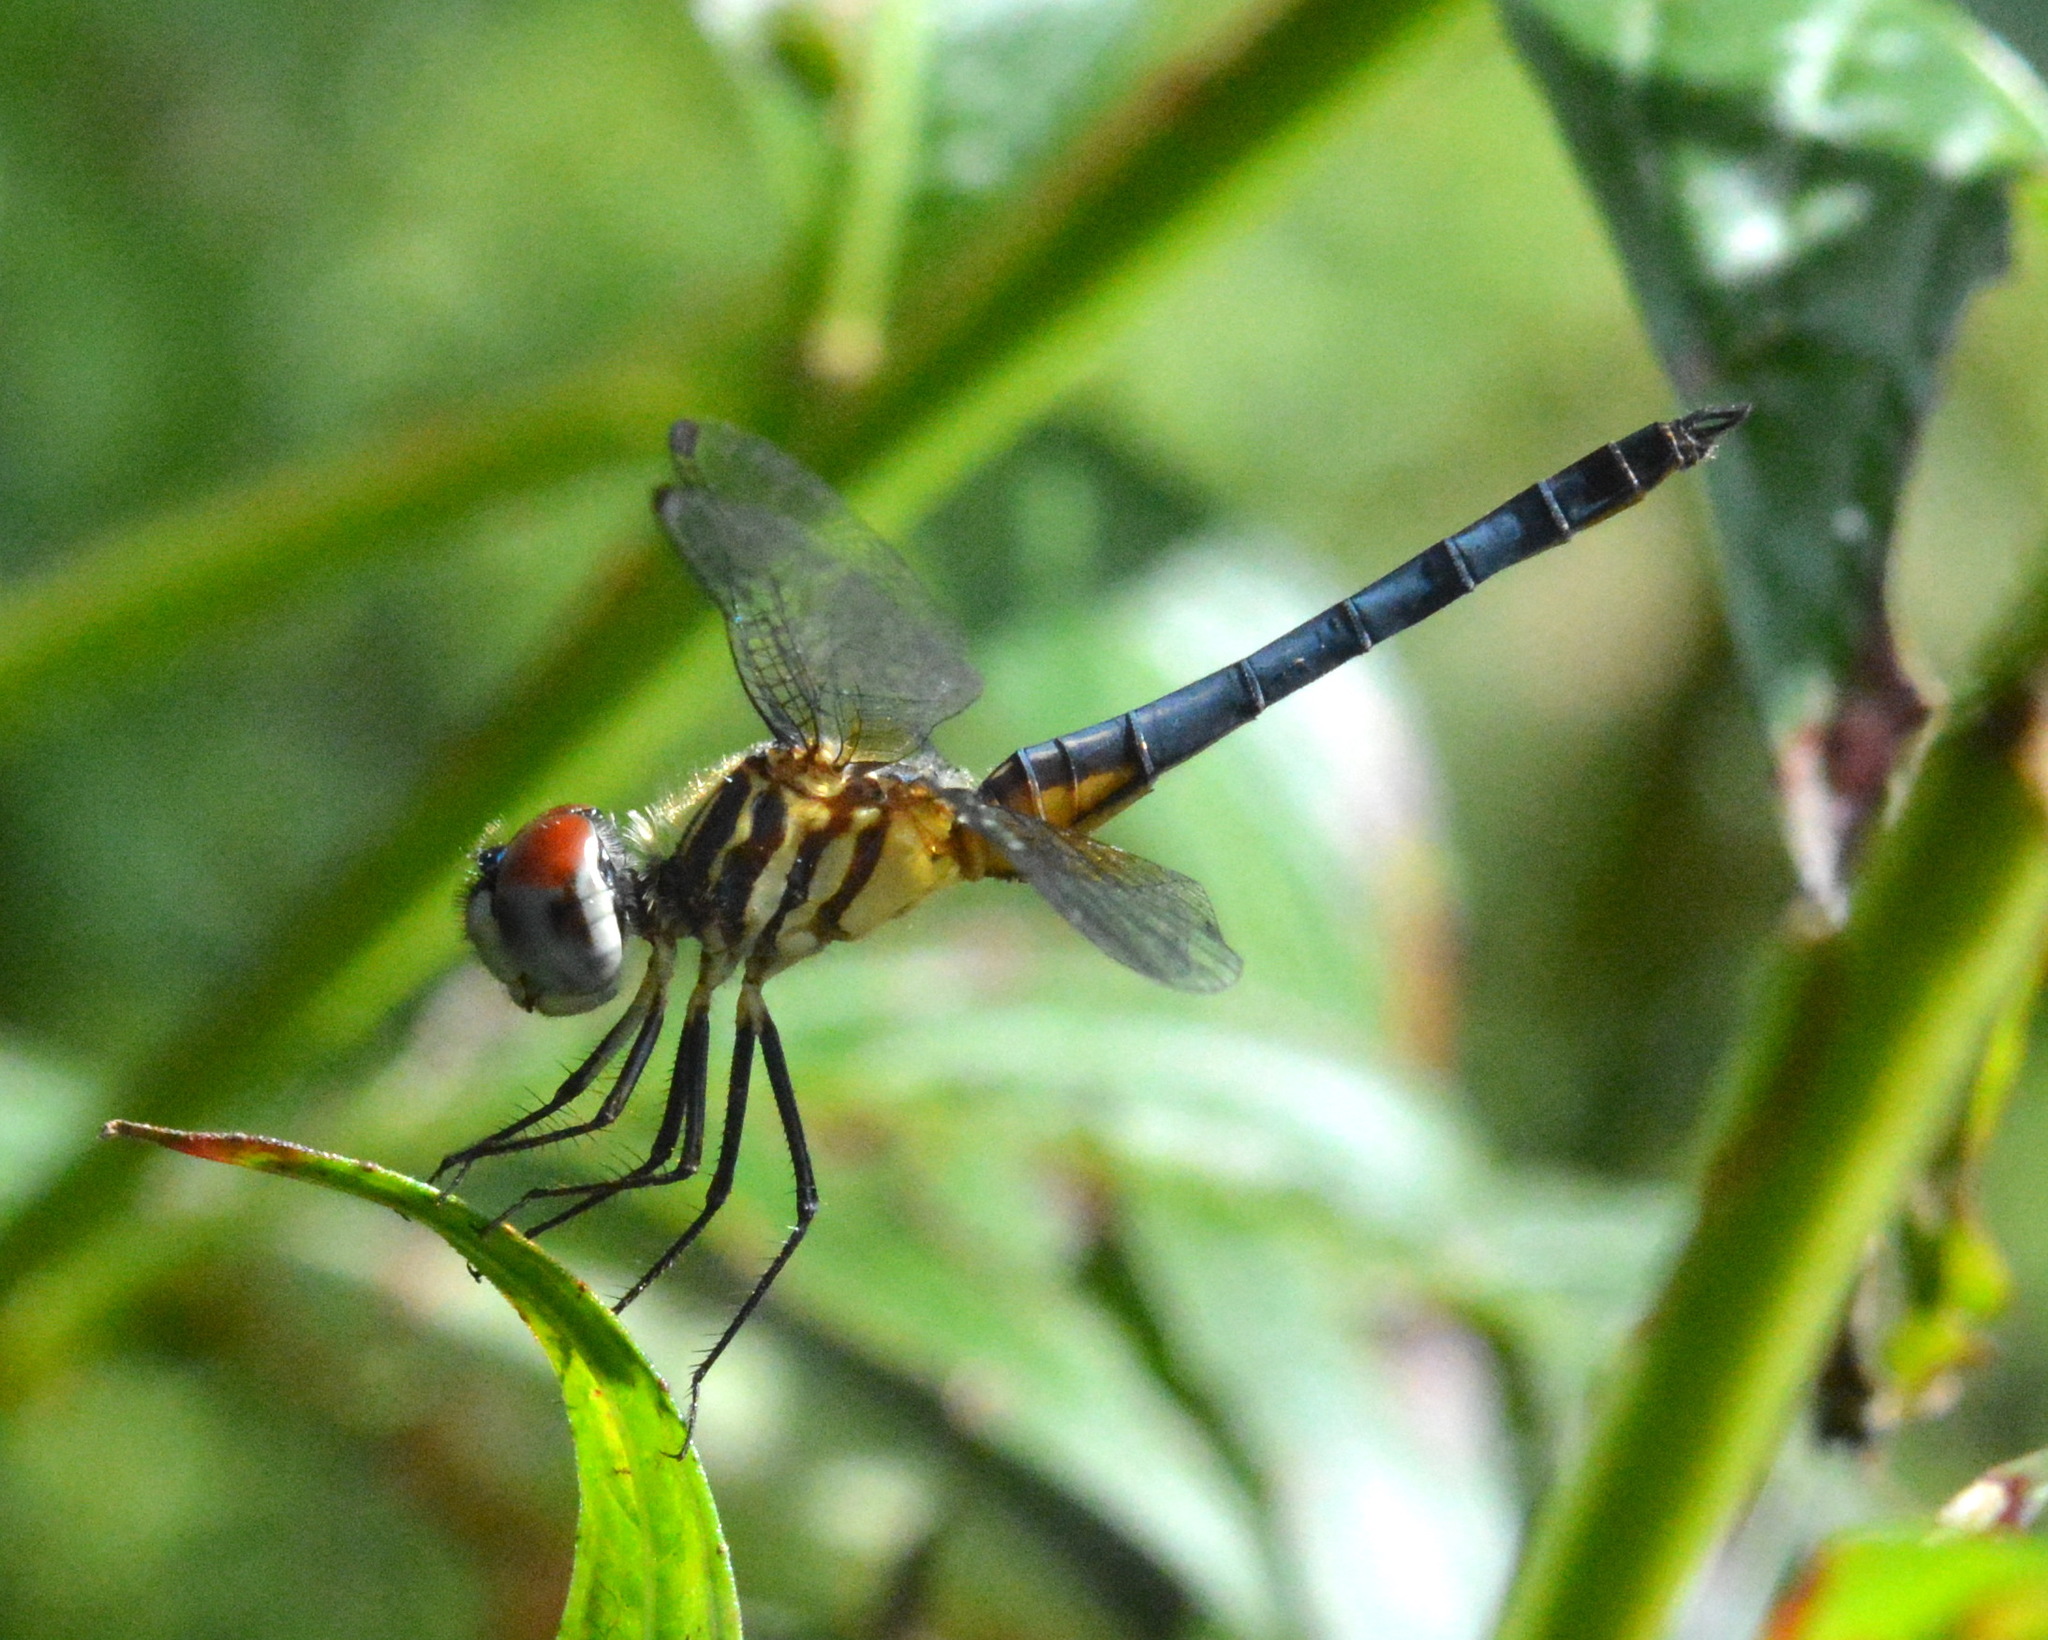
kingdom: Animalia
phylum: Arthropoda
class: Insecta
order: Odonata
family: Libellulidae
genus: Pachydiplax
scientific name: Pachydiplax longipennis
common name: Blue dasher
